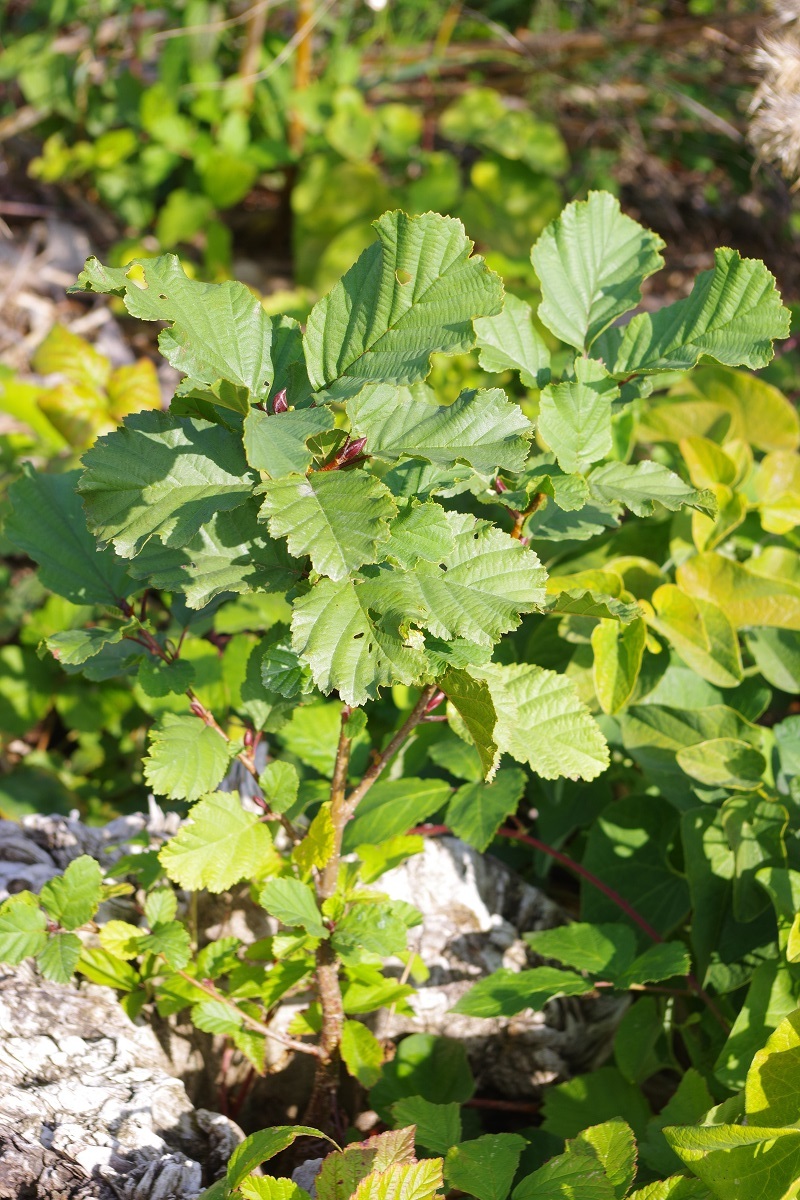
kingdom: Plantae
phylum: Tracheophyta
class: Magnoliopsida
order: Fagales
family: Betulaceae
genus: Alnus
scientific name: Alnus glutinosa
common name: Black alder
